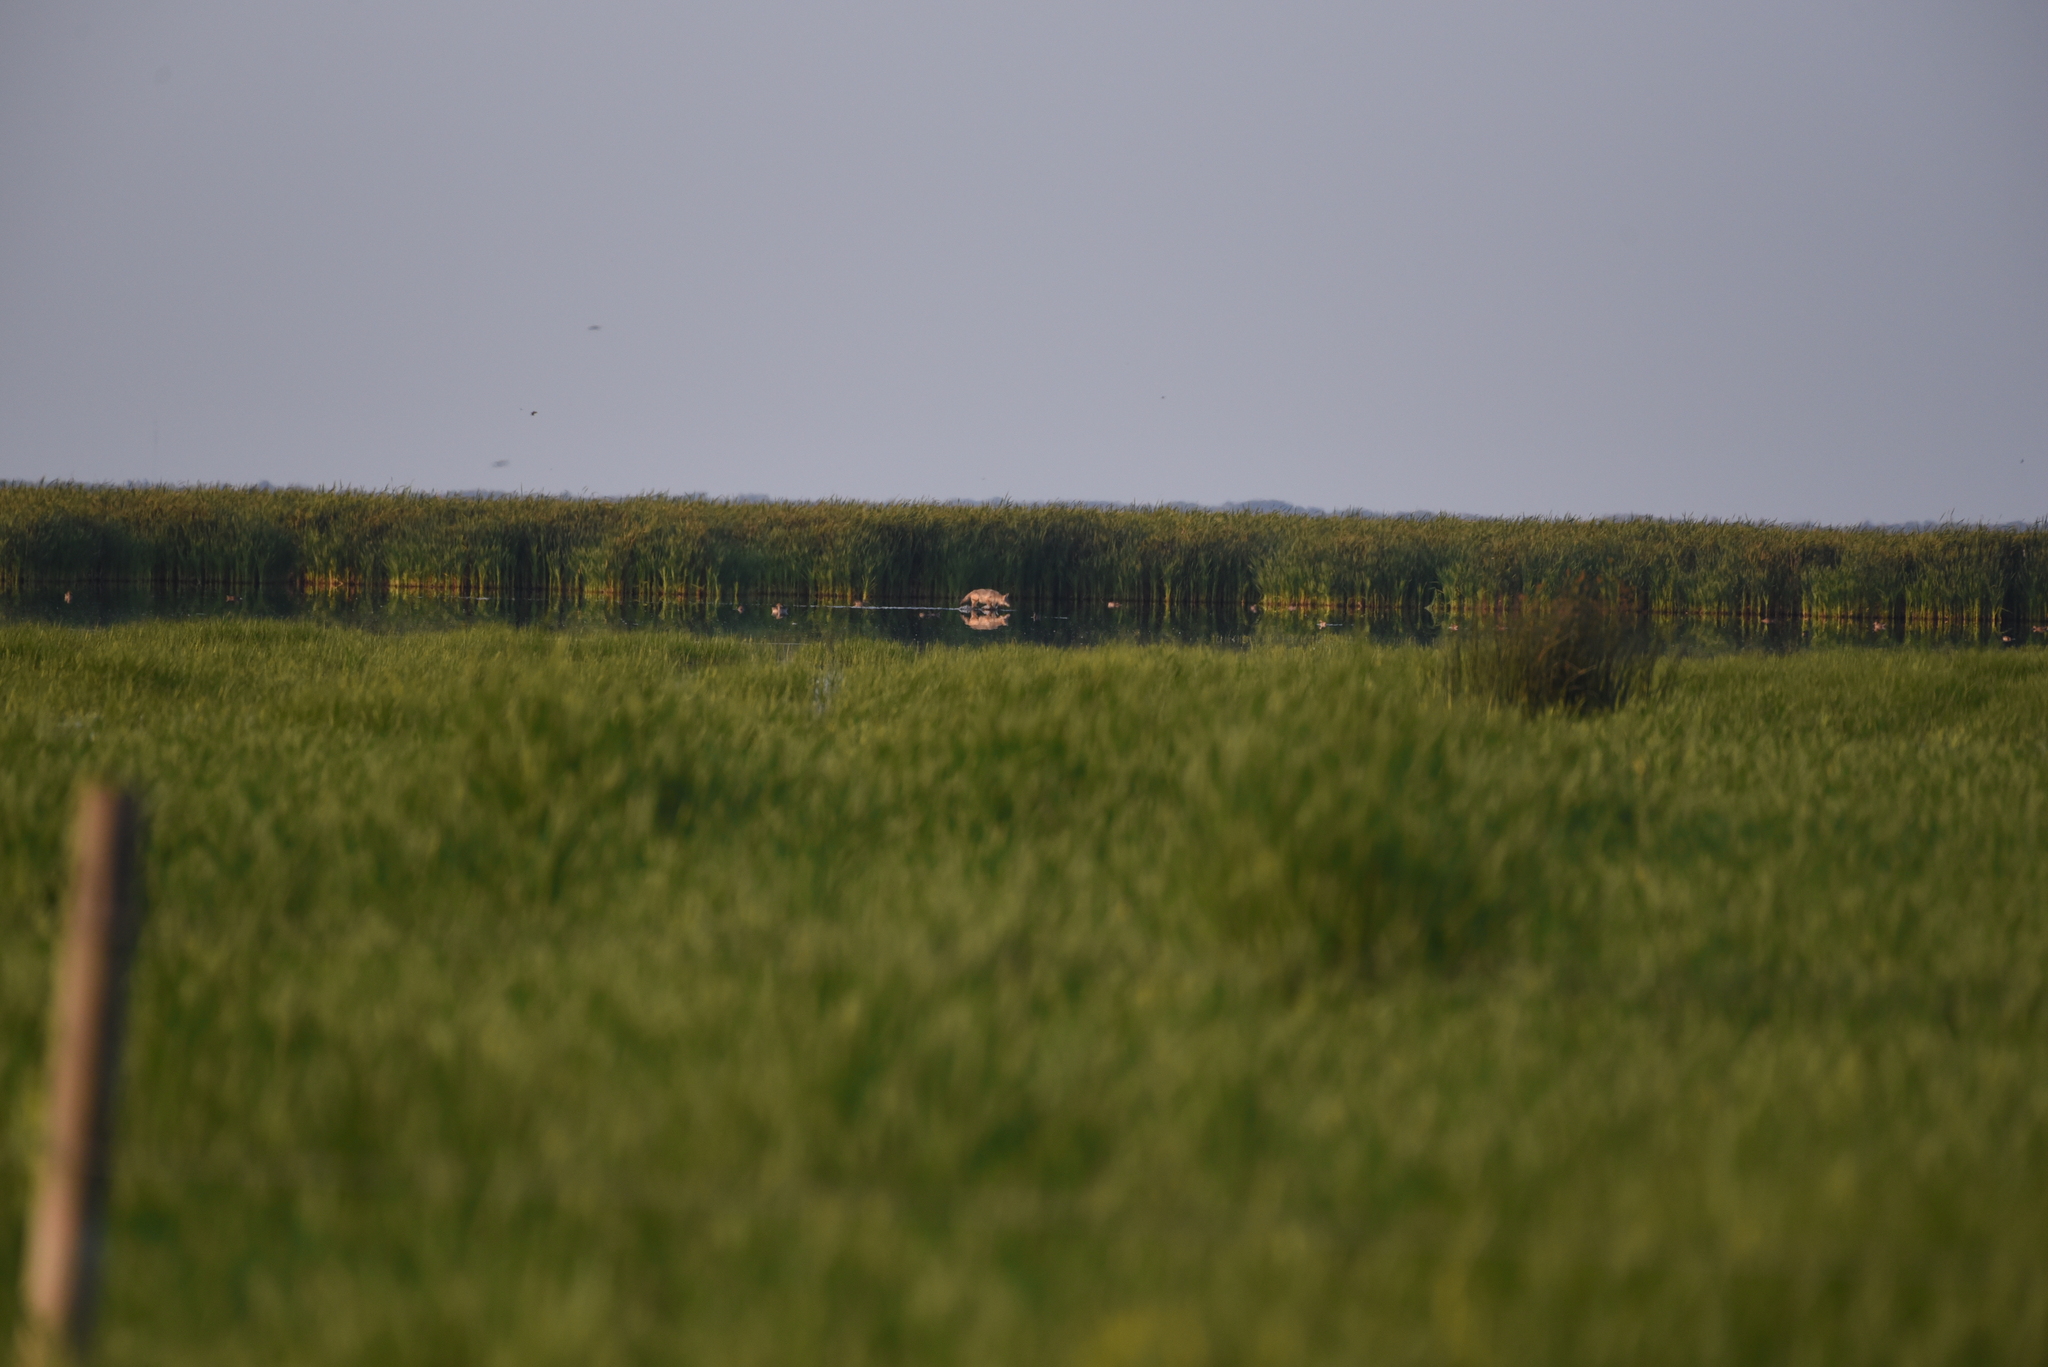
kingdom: Animalia
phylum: Chordata
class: Mammalia
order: Carnivora
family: Canidae
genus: Canis
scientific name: Canis latrans
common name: Coyote
